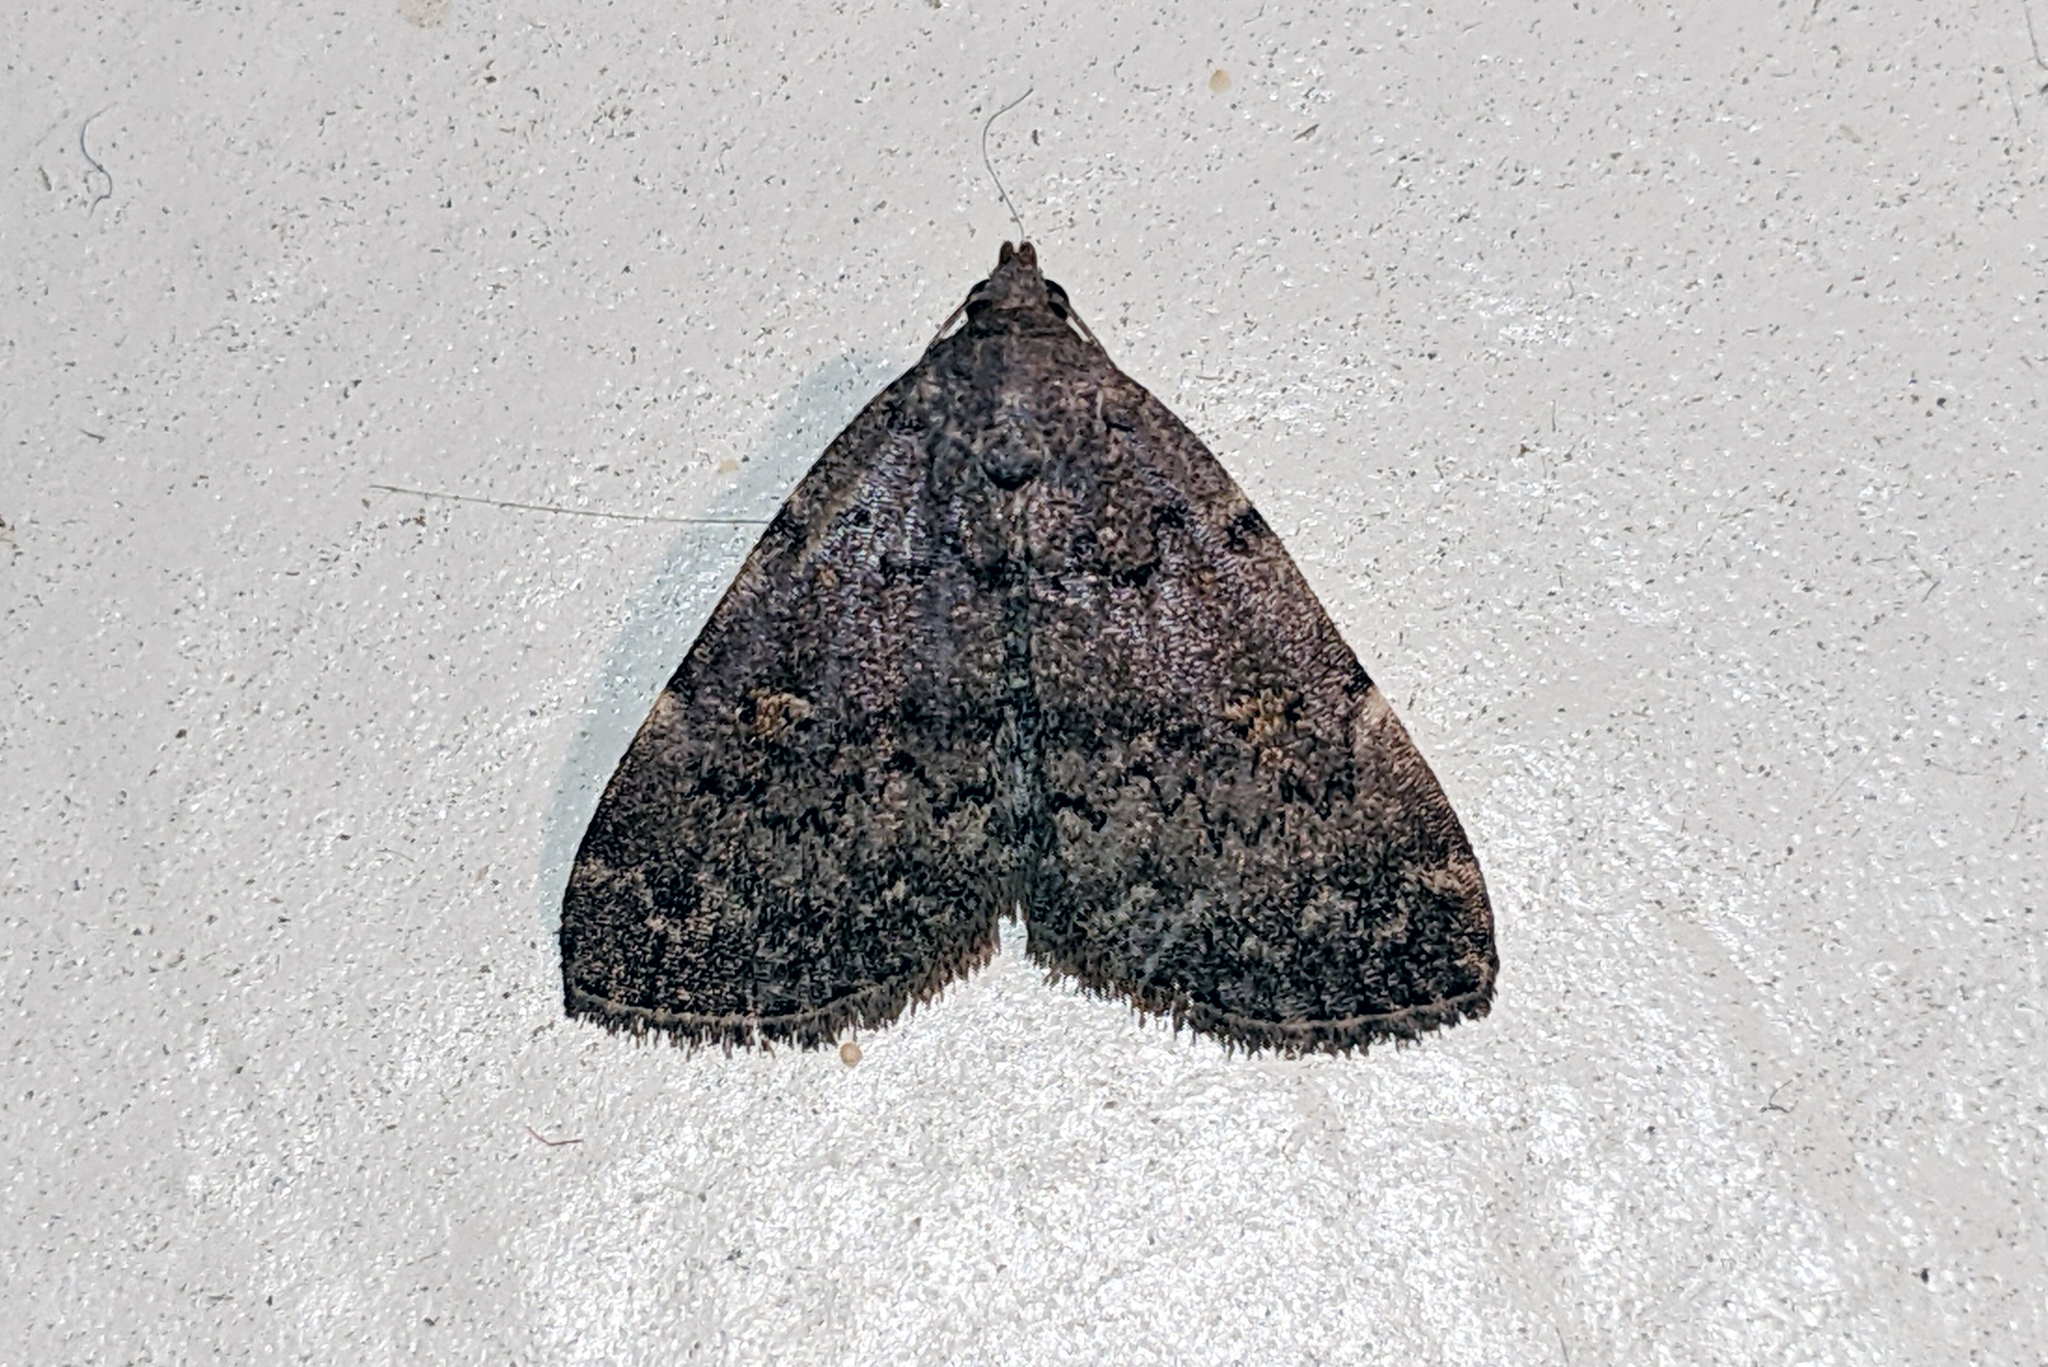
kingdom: Animalia
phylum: Arthropoda
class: Insecta
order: Lepidoptera
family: Erebidae
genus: Idia
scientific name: Idia aemula
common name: Common idia moth
